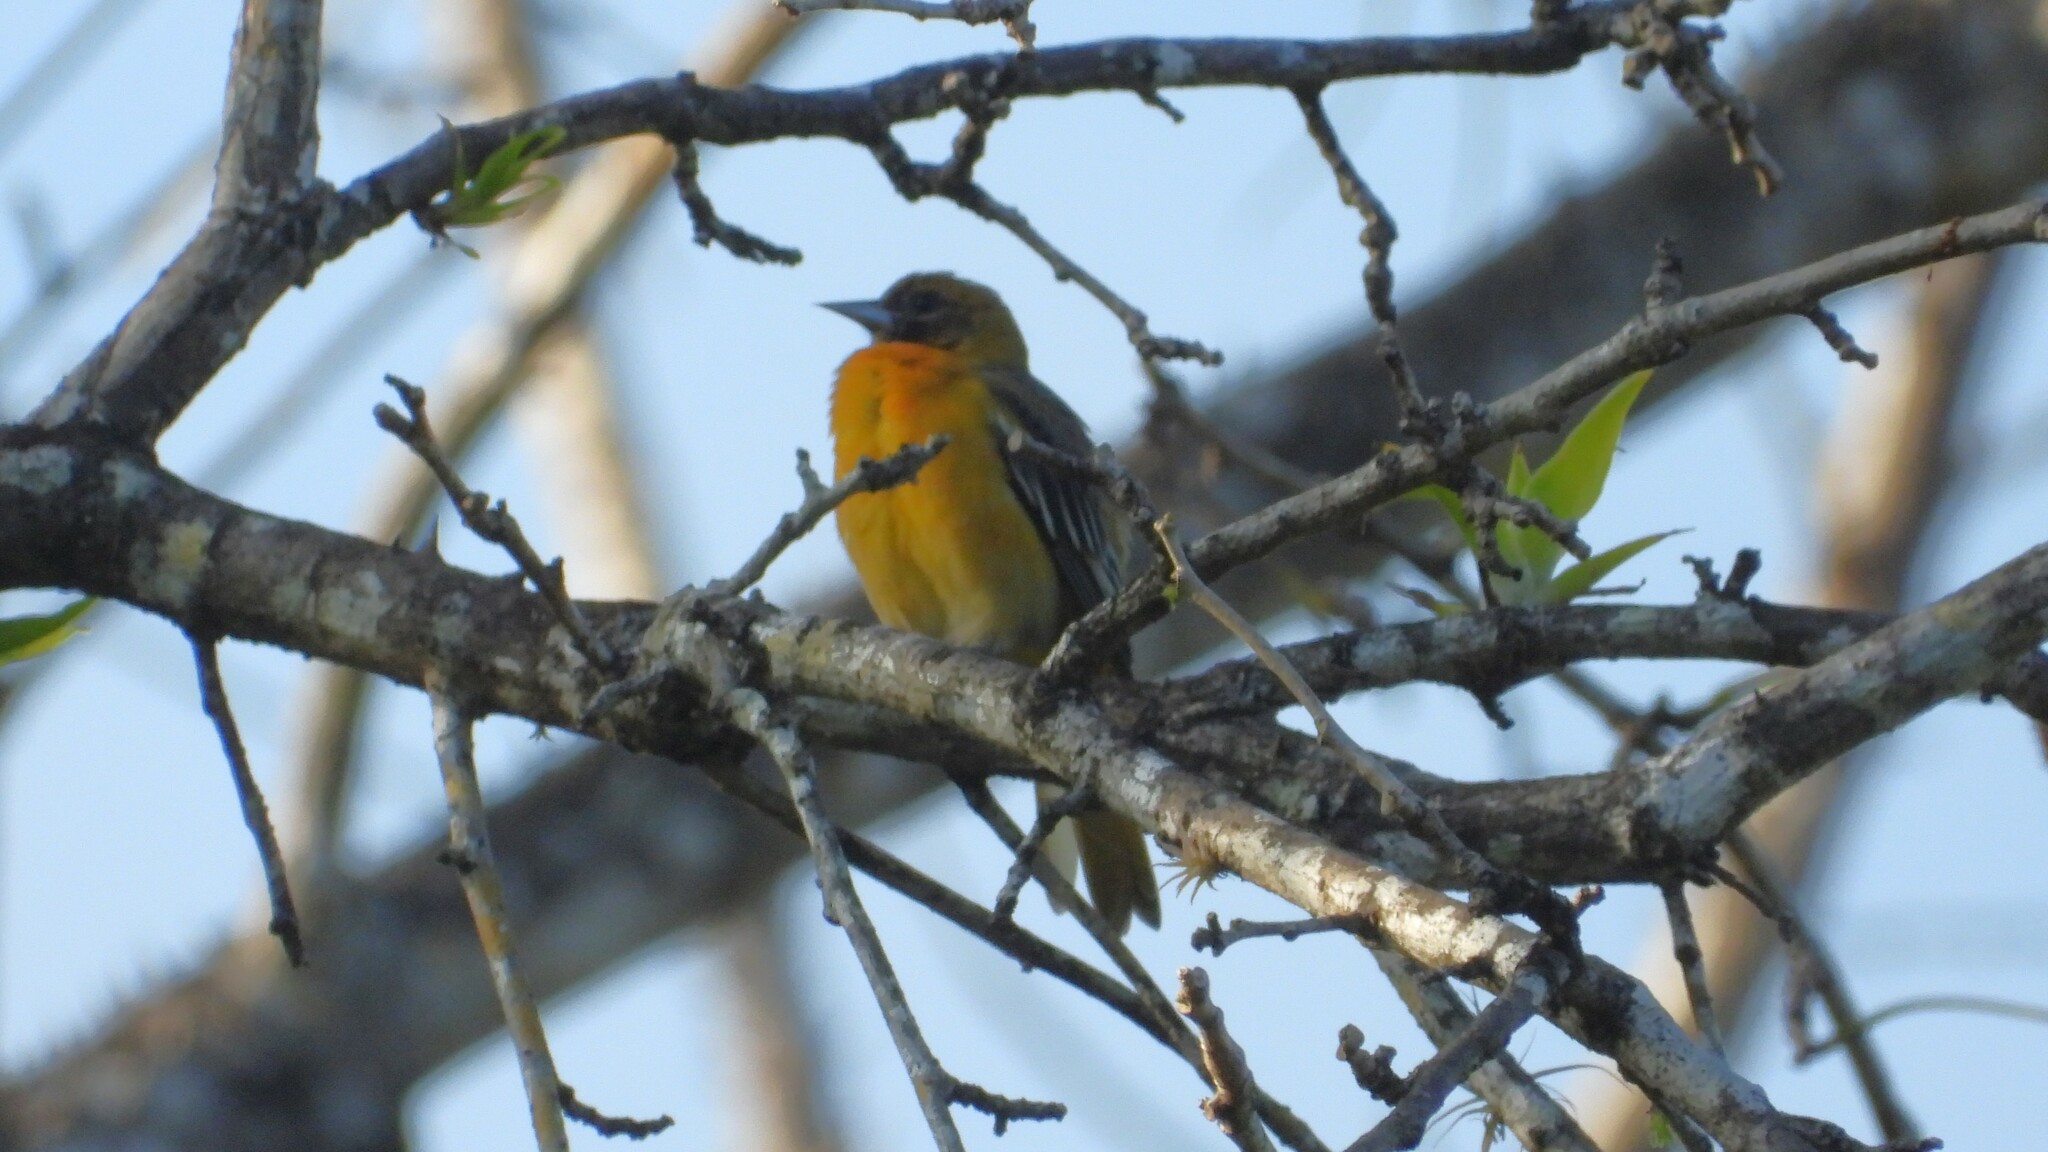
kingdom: Animalia
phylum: Chordata
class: Aves
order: Passeriformes
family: Icteridae
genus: Icterus
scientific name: Icterus galbula
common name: Baltimore oriole
